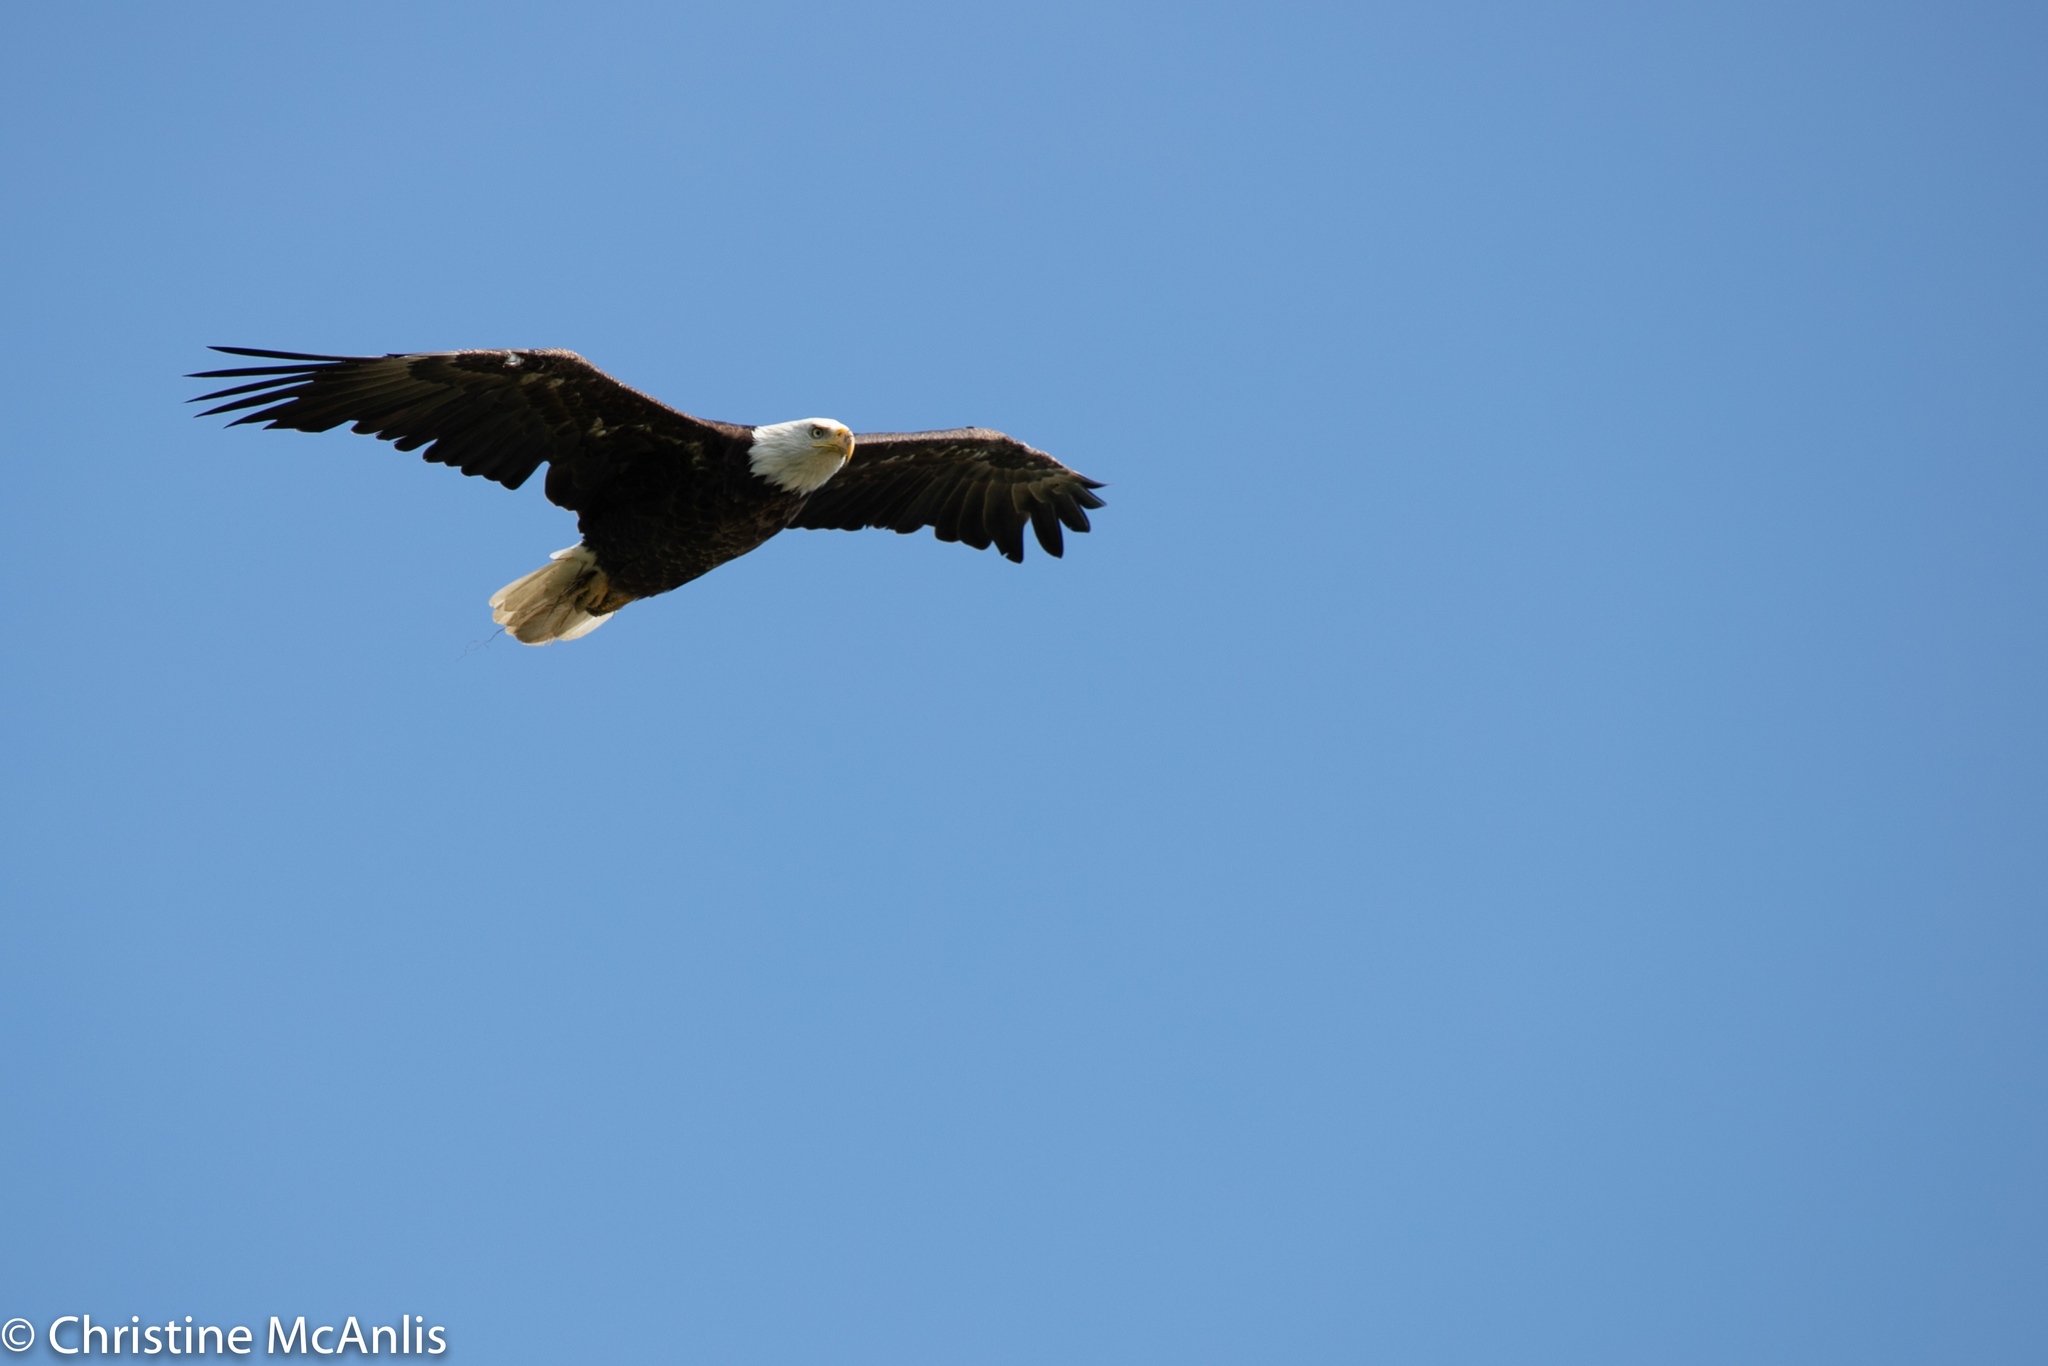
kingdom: Animalia
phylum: Chordata
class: Aves
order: Accipitriformes
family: Accipitridae
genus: Haliaeetus
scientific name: Haliaeetus leucocephalus
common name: Bald eagle
